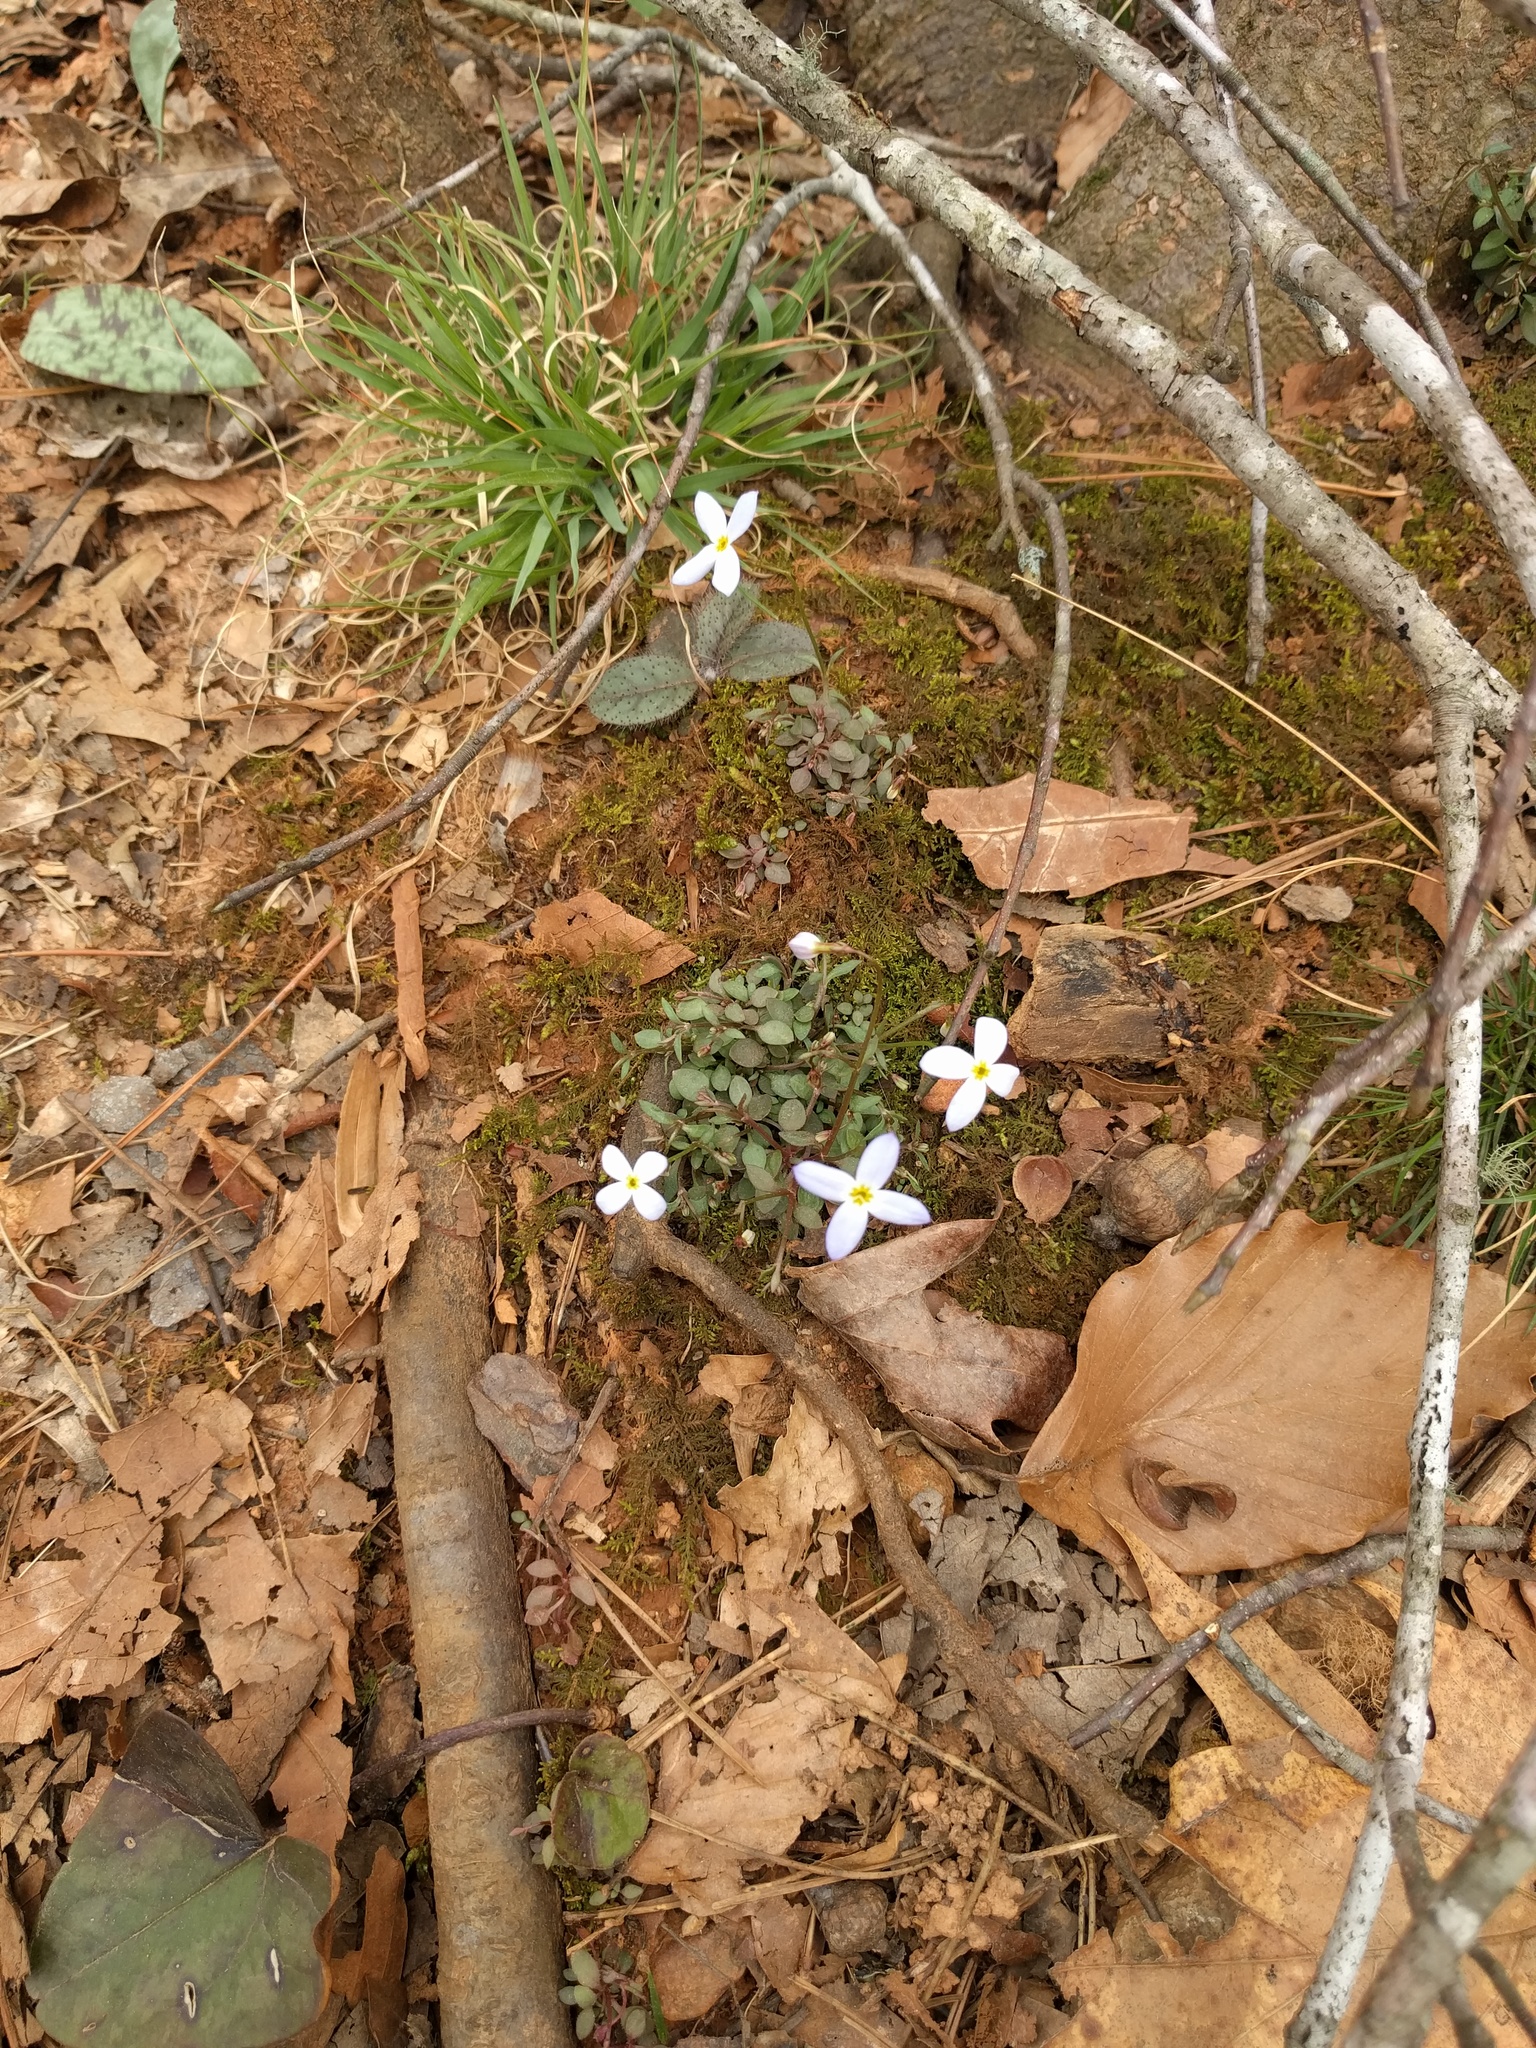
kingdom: Plantae
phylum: Tracheophyta
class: Magnoliopsida
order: Gentianales
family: Rubiaceae
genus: Houstonia
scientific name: Houstonia caerulea
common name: Bluets
